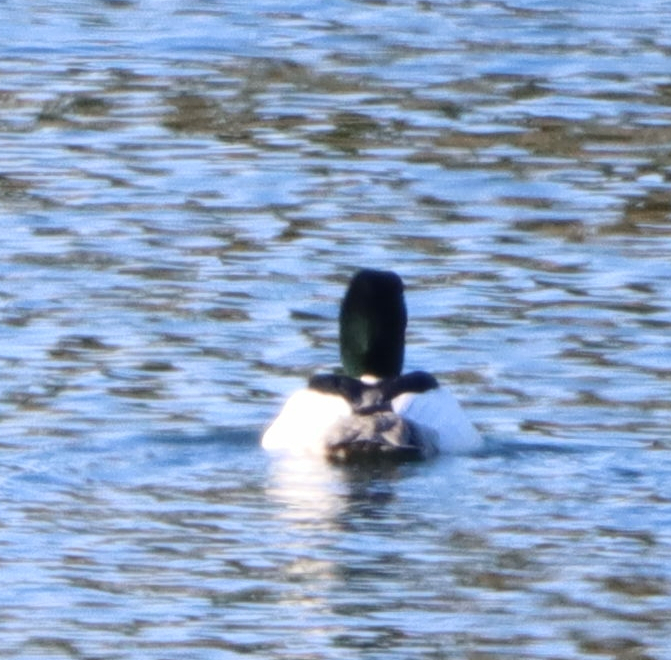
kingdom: Animalia
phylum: Chordata
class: Aves
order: Anseriformes
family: Anatidae
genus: Mergus
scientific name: Mergus merganser
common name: Common merganser
